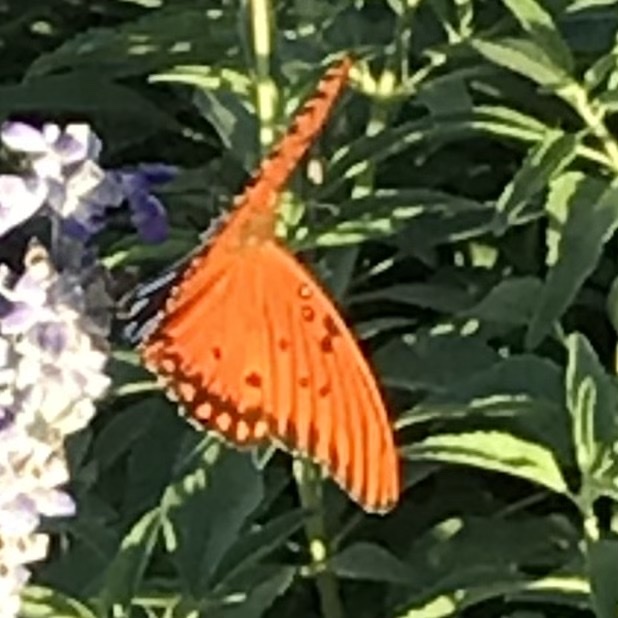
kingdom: Animalia
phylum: Arthropoda
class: Insecta
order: Lepidoptera
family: Nymphalidae
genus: Dione
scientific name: Dione vanillae
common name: Gulf fritillary
